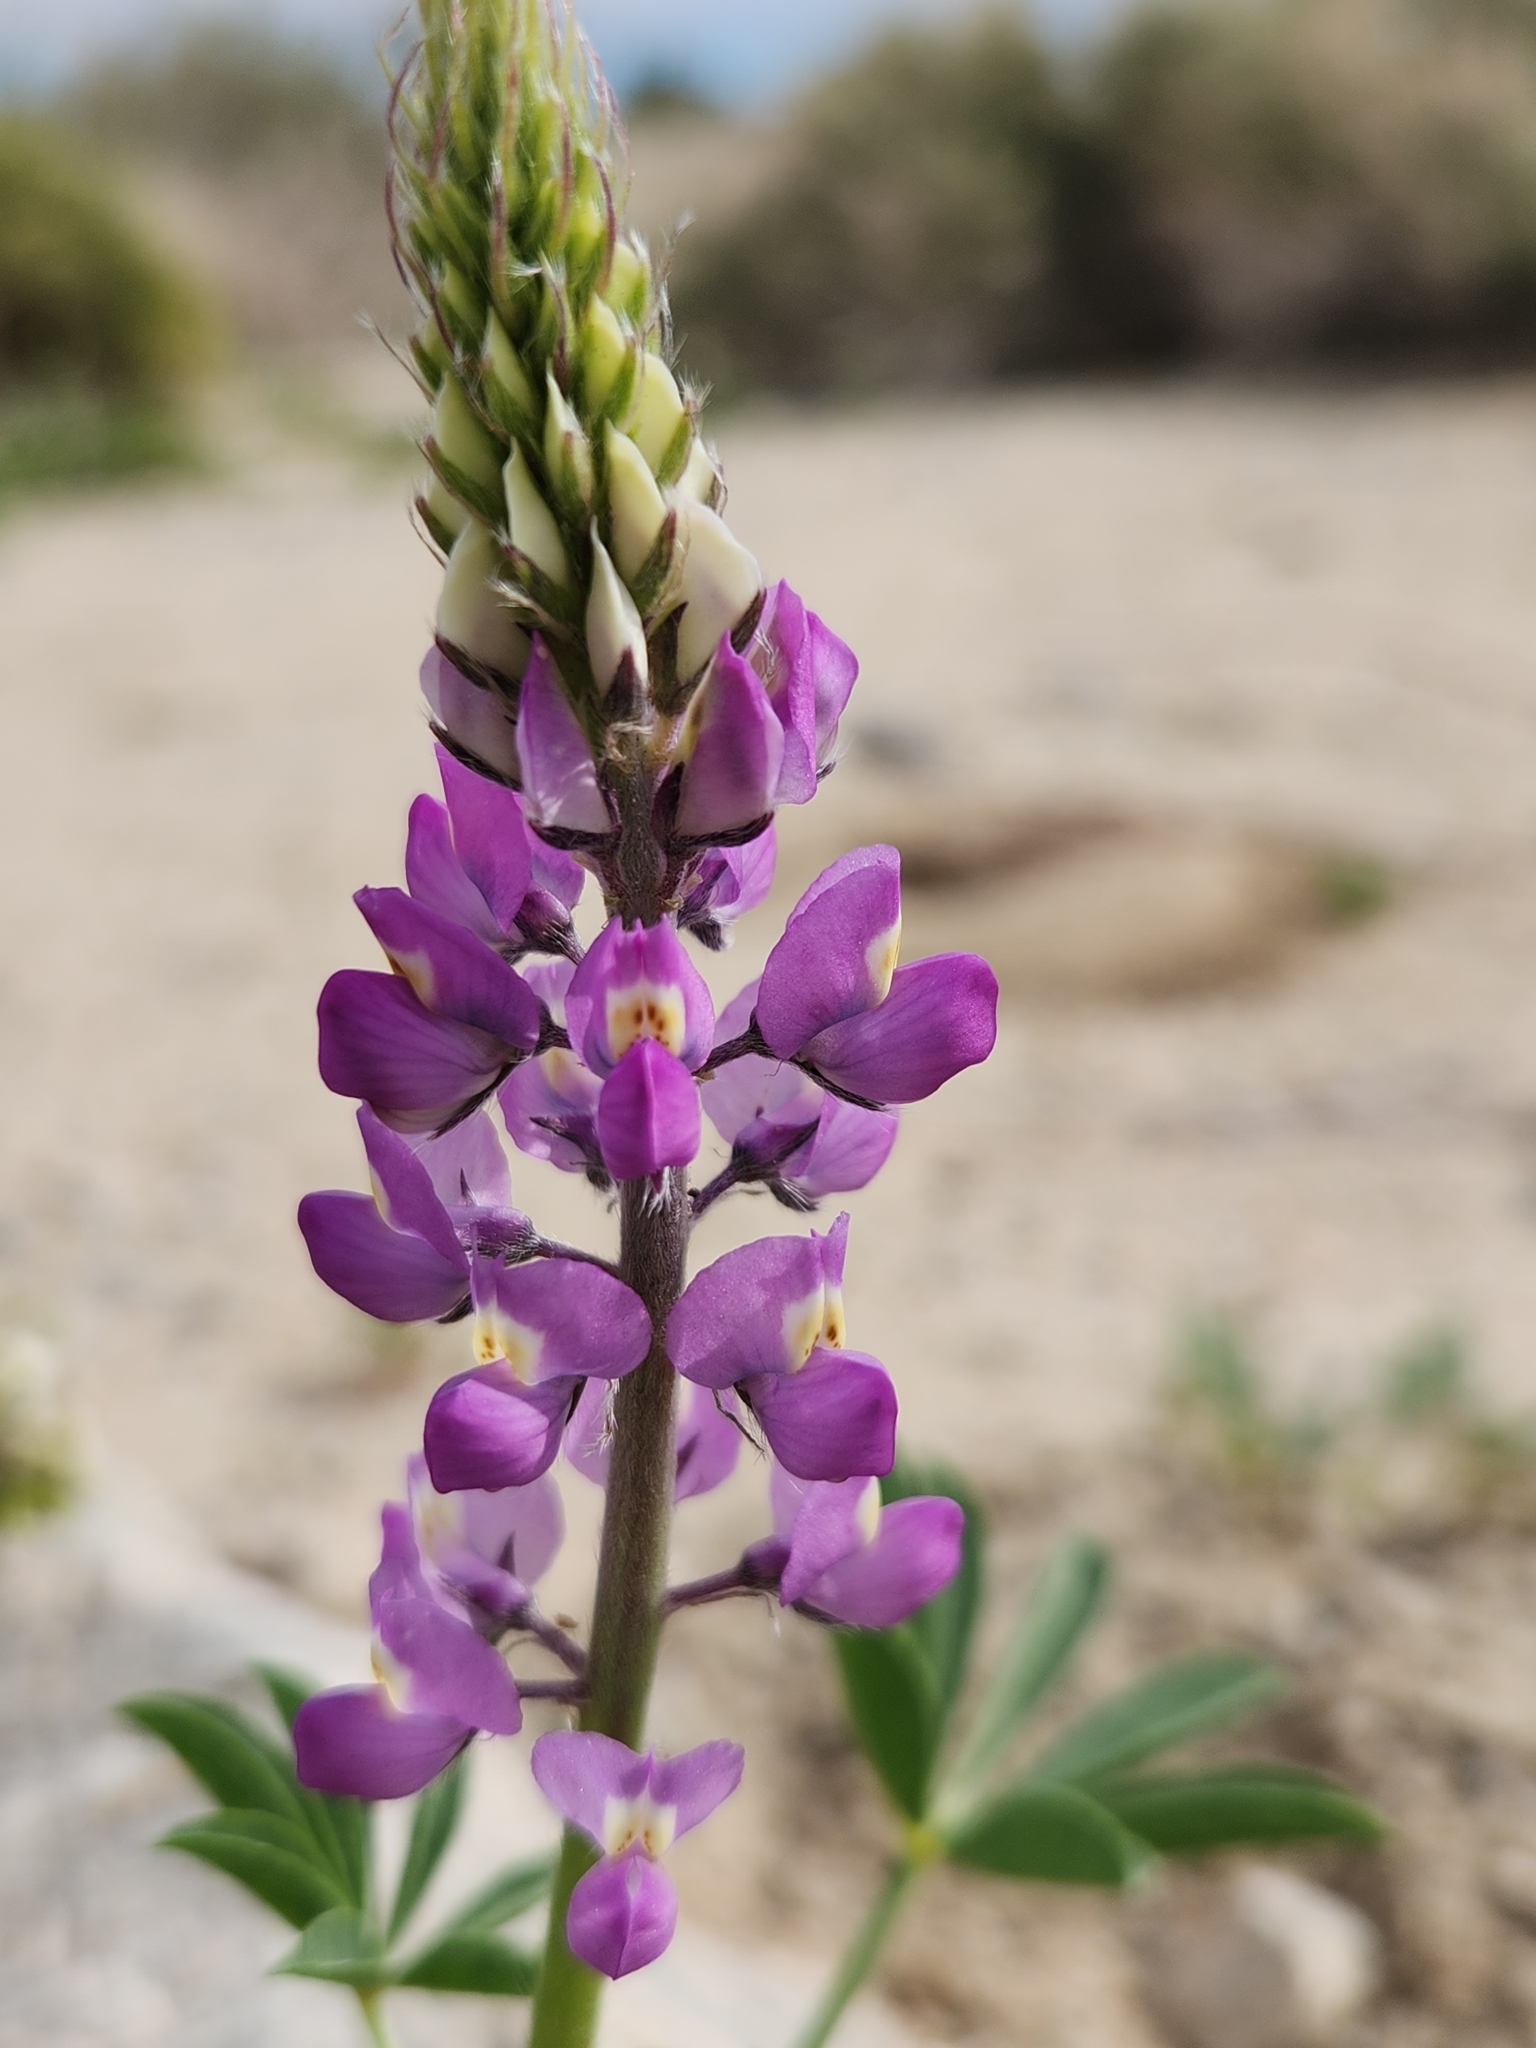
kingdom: Plantae
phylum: Tracheophyta
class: Magnoliopsida
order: Fabales
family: Fabaceae
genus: Lupinus
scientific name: Lupinus arizonicus
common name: Arizona lupine
